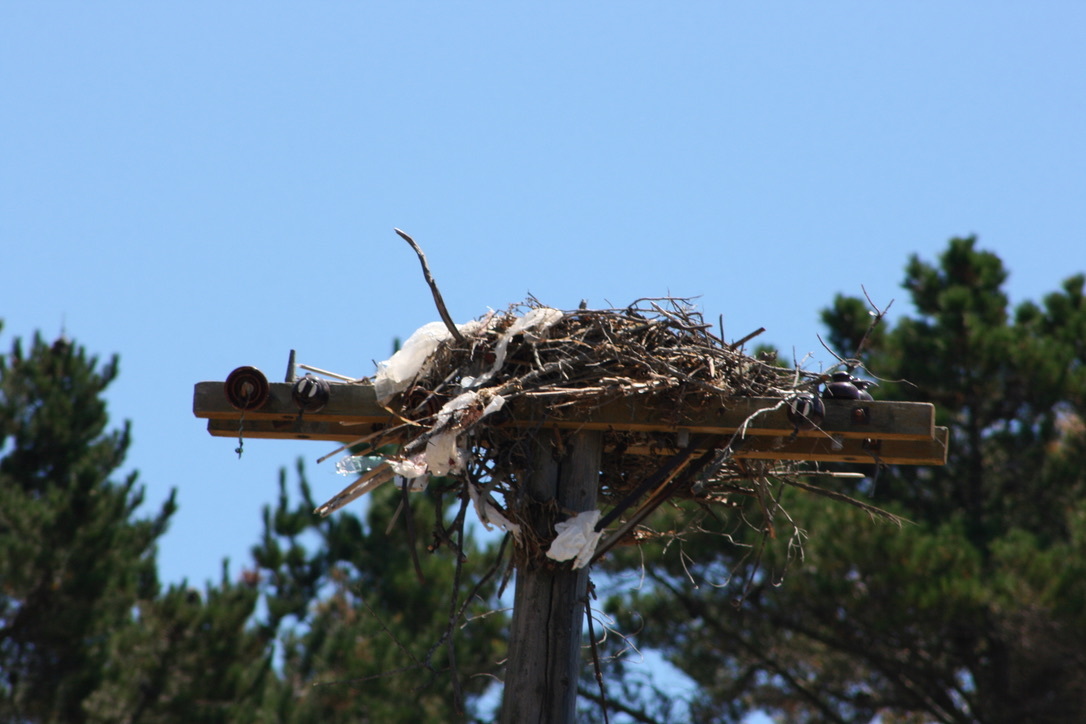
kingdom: Animalia
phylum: Chordata
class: Aves
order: Accipitriformes
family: Pandionidae
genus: Pandion
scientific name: Pandion haliaetus
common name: Osprey
